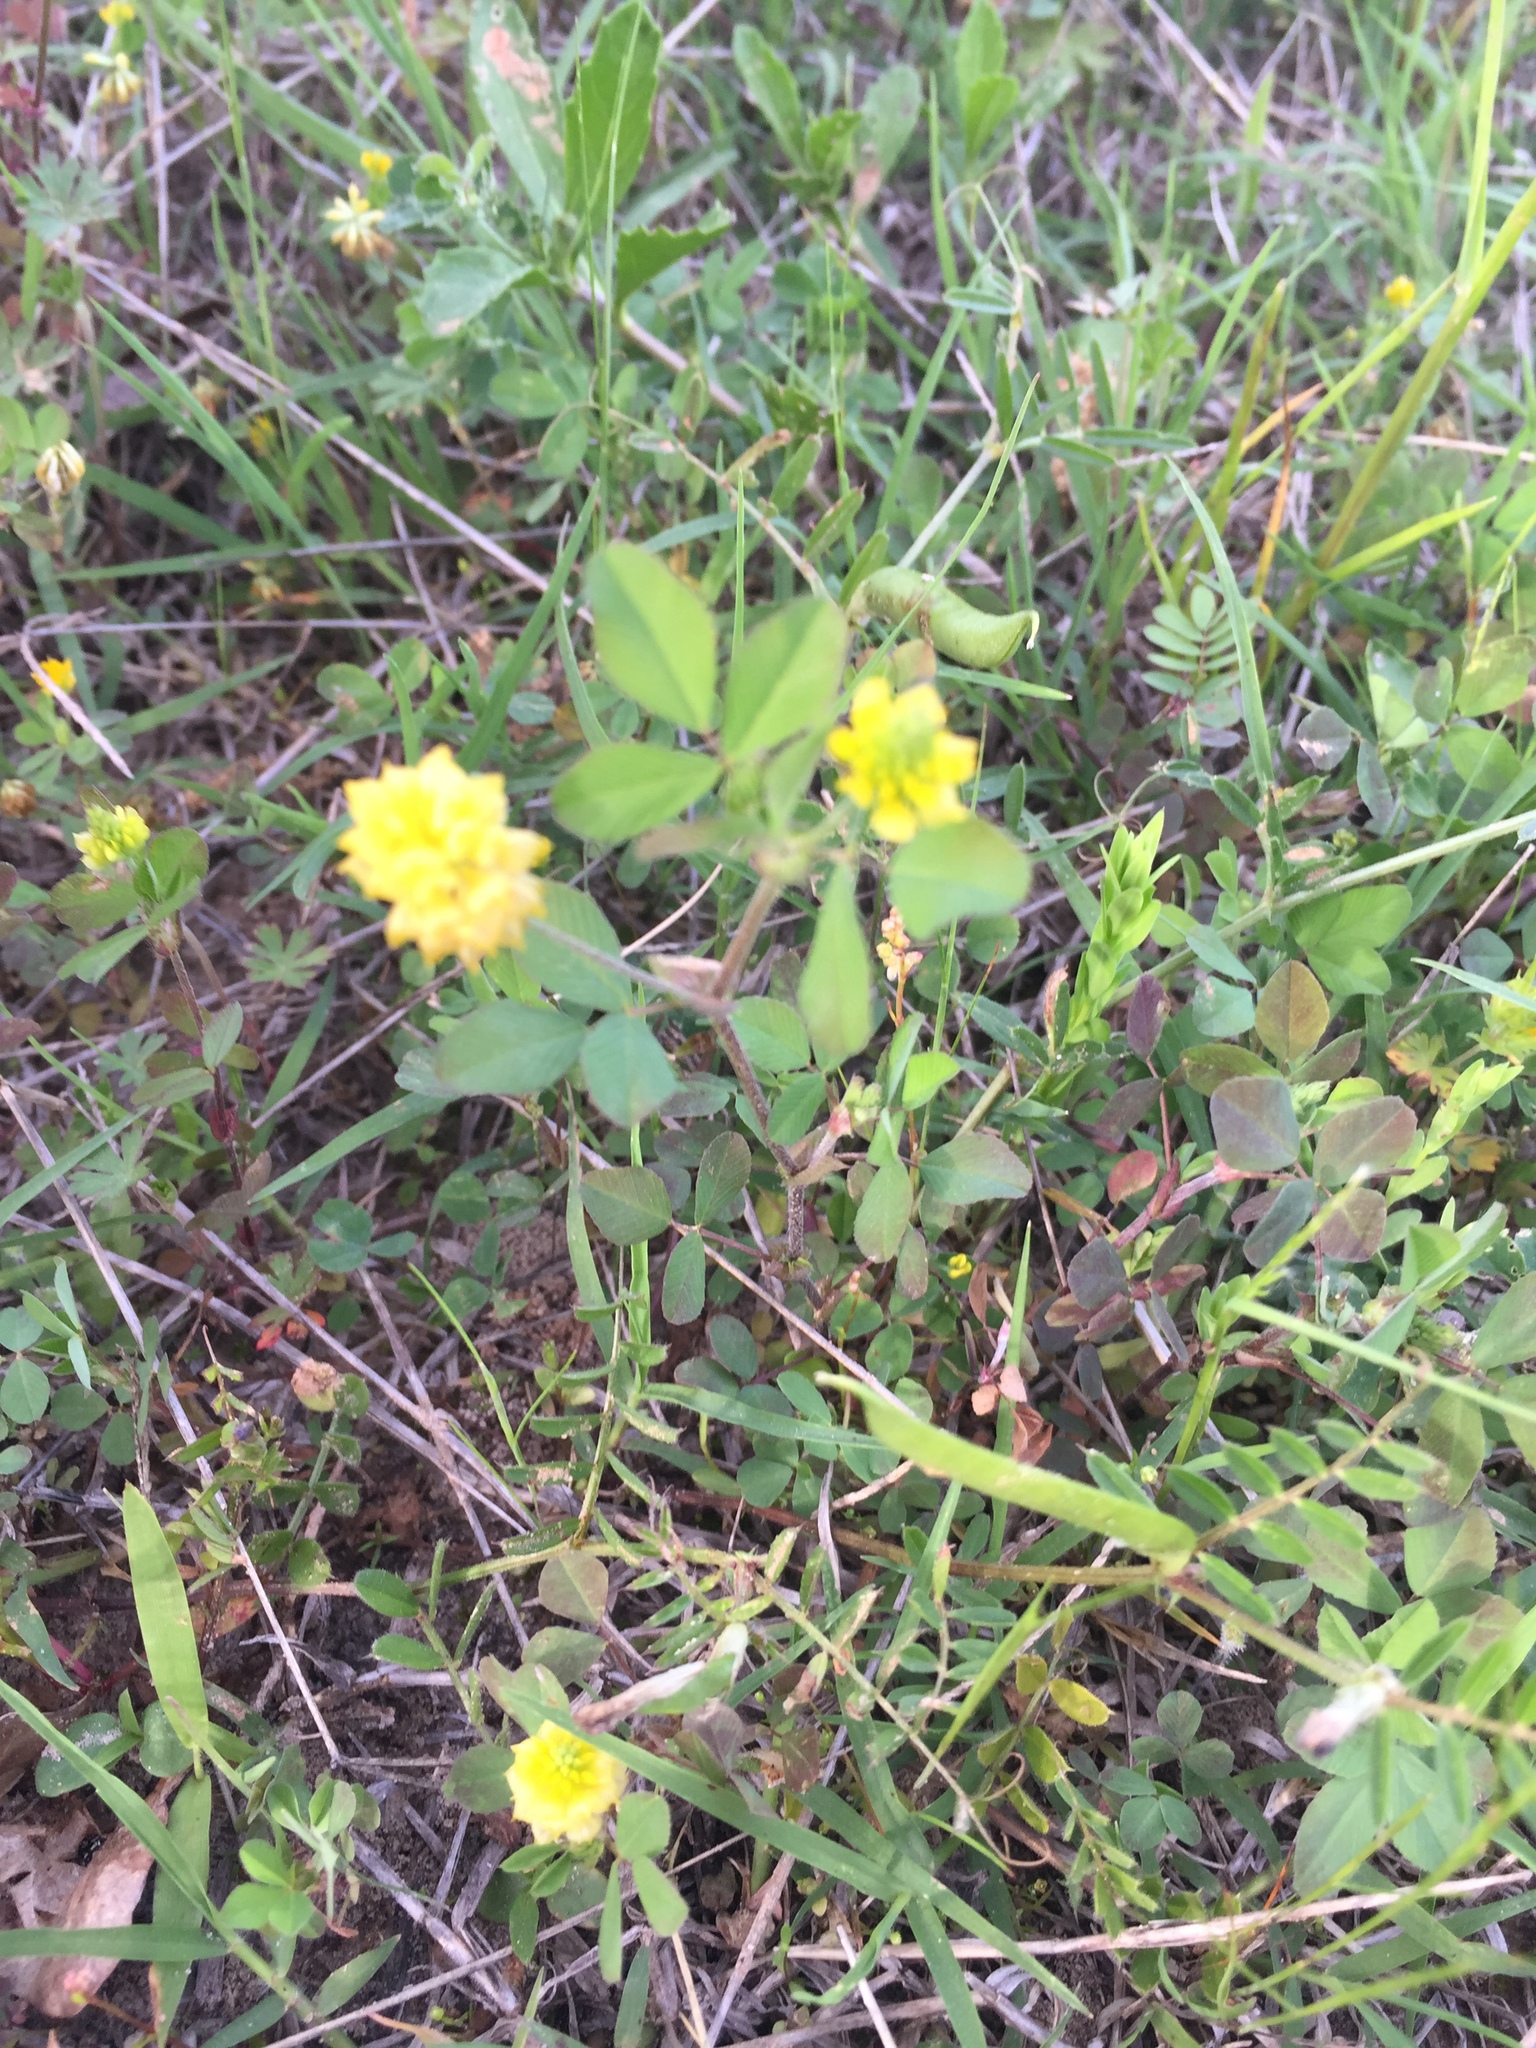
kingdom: Plantae
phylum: Tracheophyta
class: Magnoliopsida
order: Fabales
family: Fabaceae
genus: Trifolium
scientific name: Trifolium campestre
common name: Field clover
